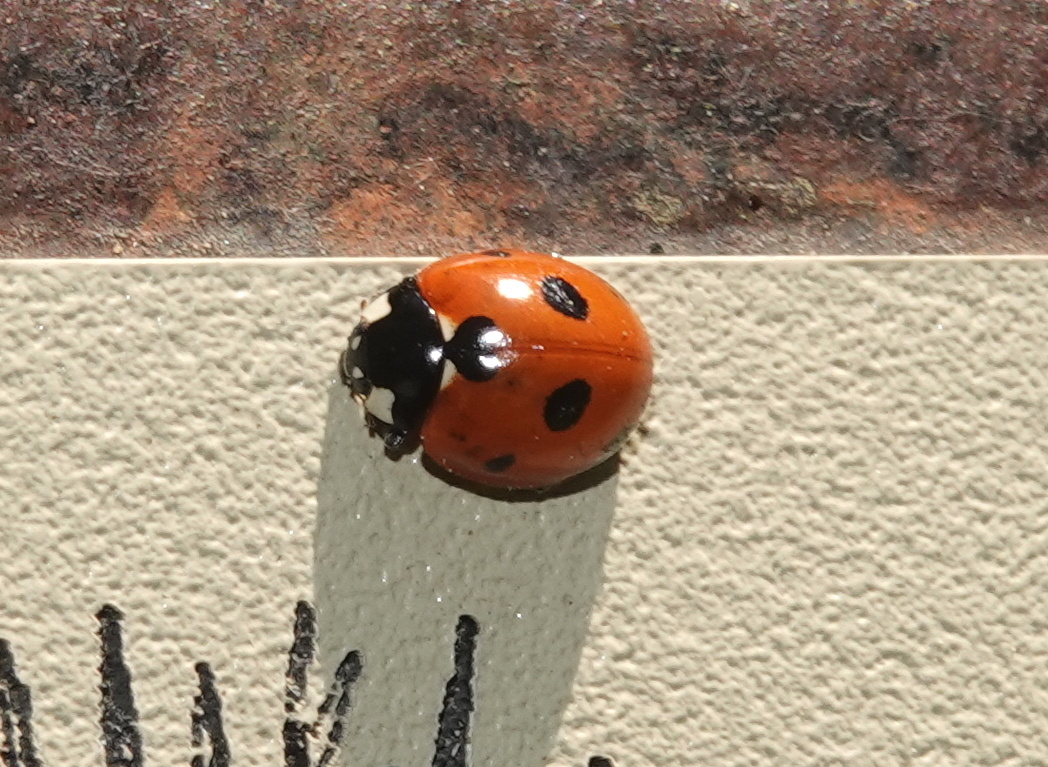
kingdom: Animalia
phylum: Arthropoda
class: Insecta
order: Coleoptera
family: Coccinellidae
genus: Coccinella
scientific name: Coccinella septempunctata
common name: Sevenspotted lady beetle
